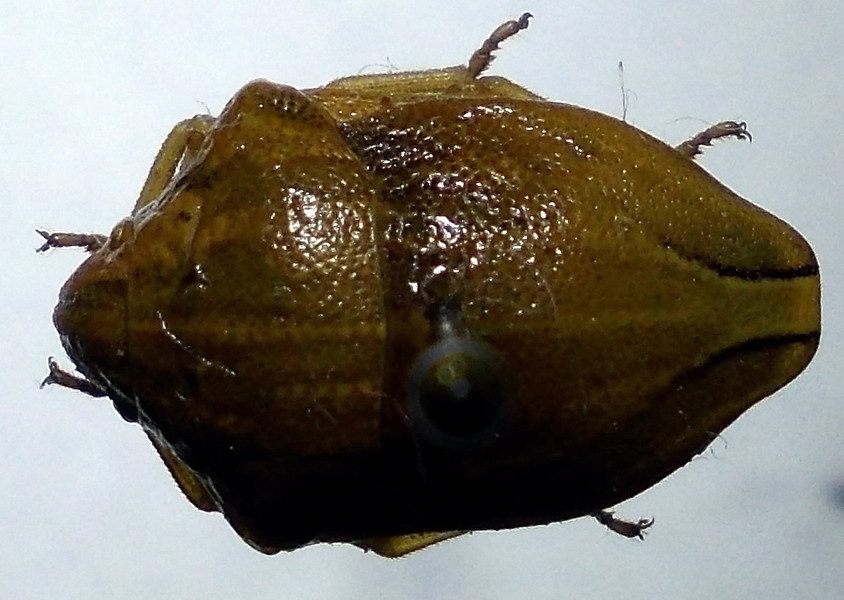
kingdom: Animalia
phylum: Arthropoda
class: Insecta
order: Hemiptera
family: Scutelleridae
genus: Odontotarsus
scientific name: Odontotarsus purpureolineatus
